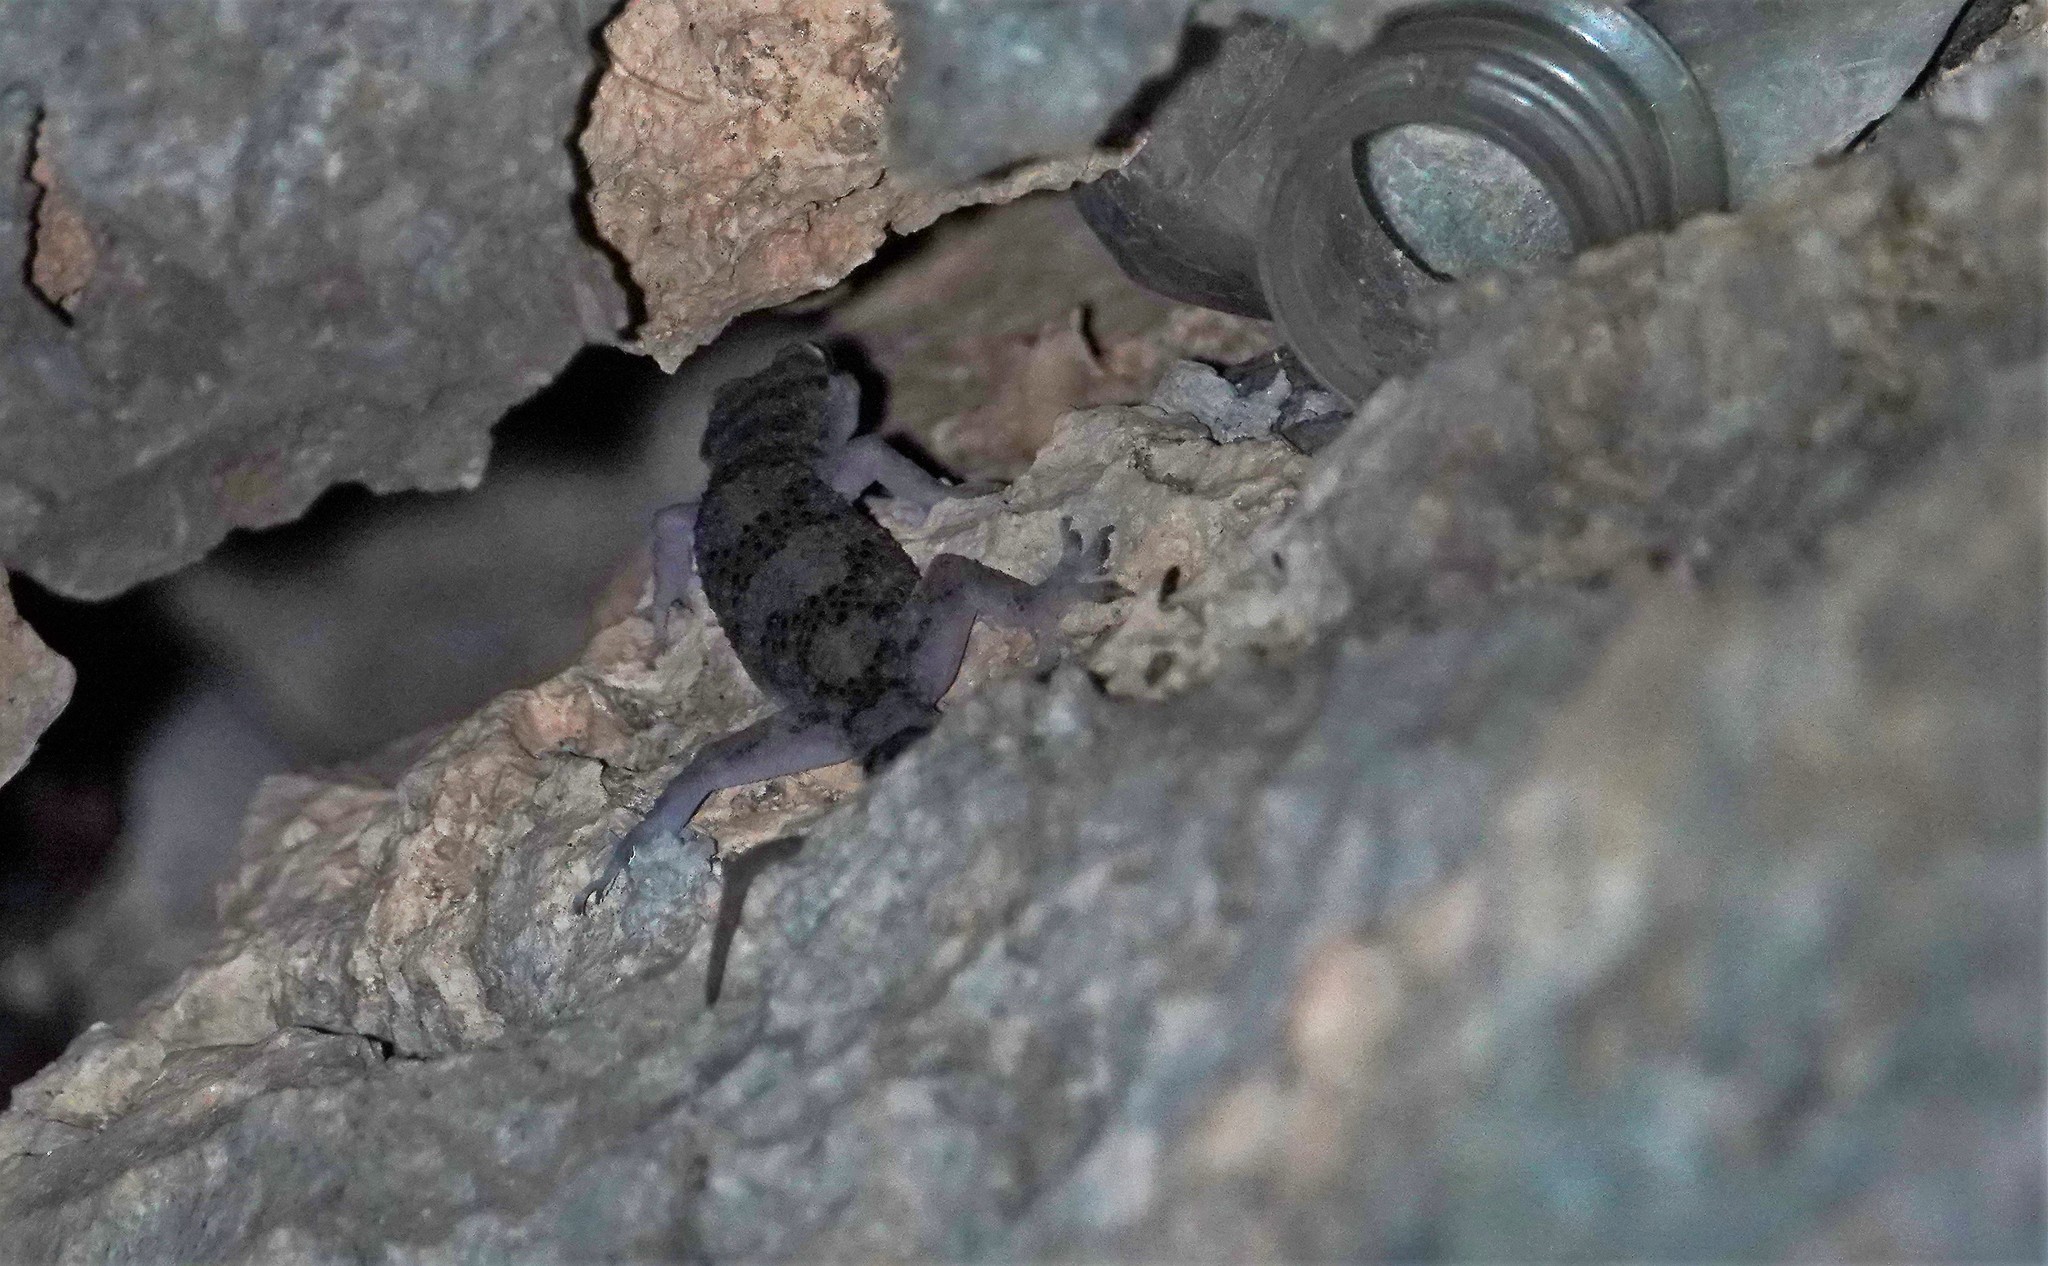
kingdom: Animalia
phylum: Chordata
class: Squamata
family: Gekkonidae
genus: Hemidactylus
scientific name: Hemidactylus angulatus
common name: Brook's house gecko
